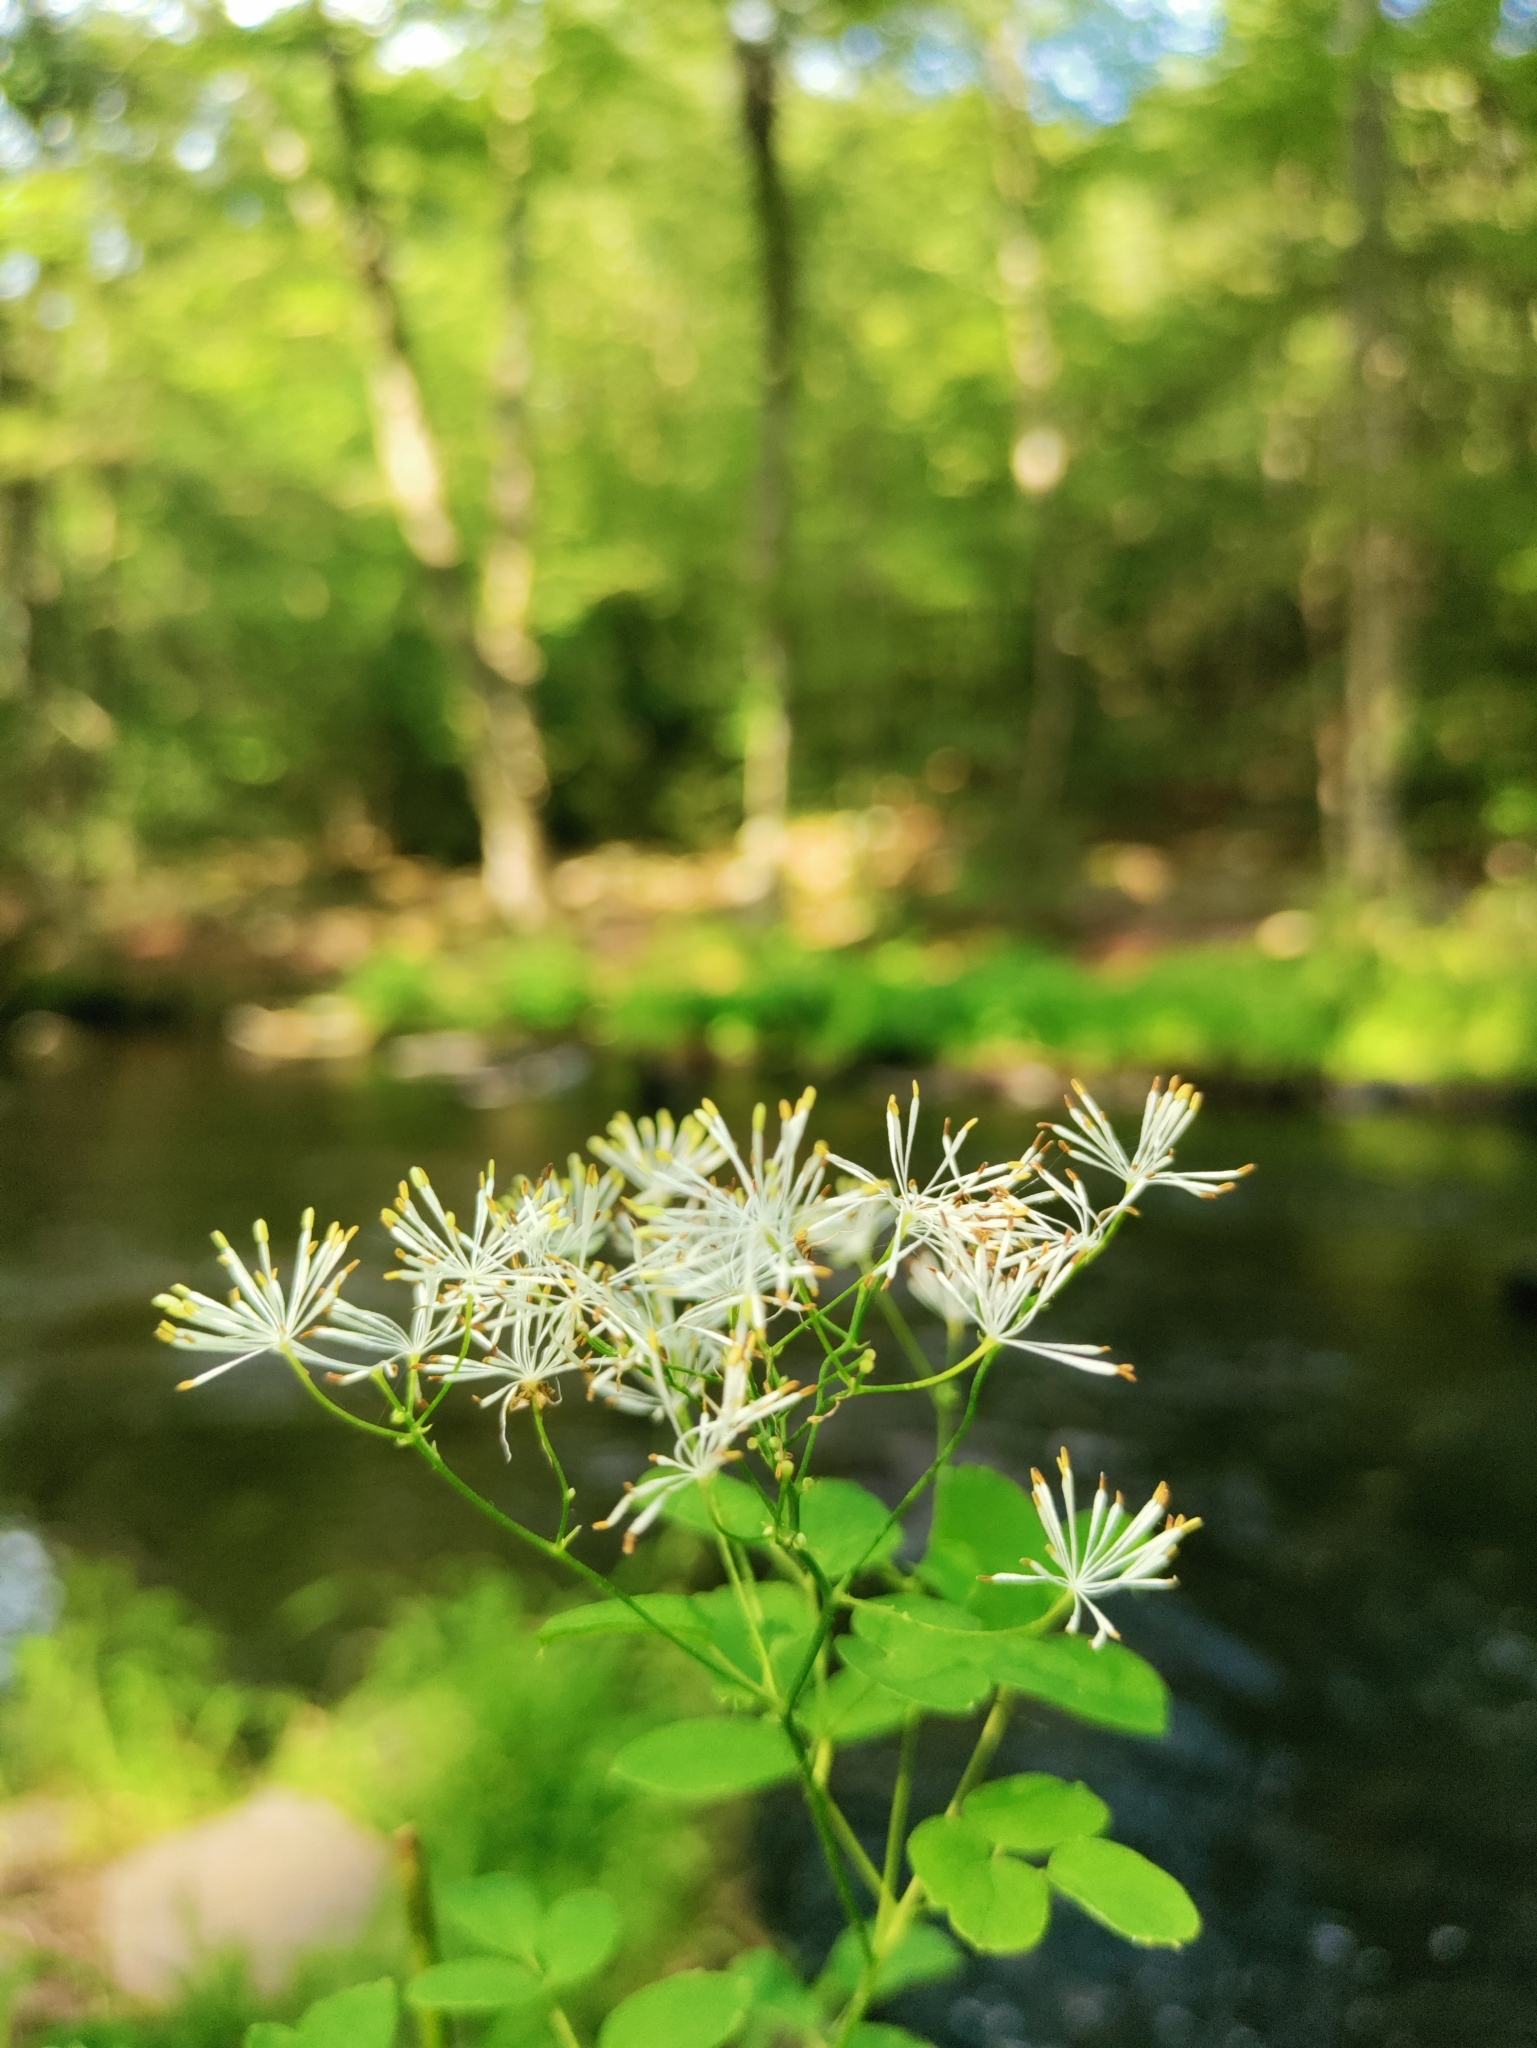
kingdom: Plantae
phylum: Tracheophyta
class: Magnoliopsida
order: Ranunculales
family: Ranunculaceae
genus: Thalictrum
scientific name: Thalictrum pubescens
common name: King-of-the-meadow
